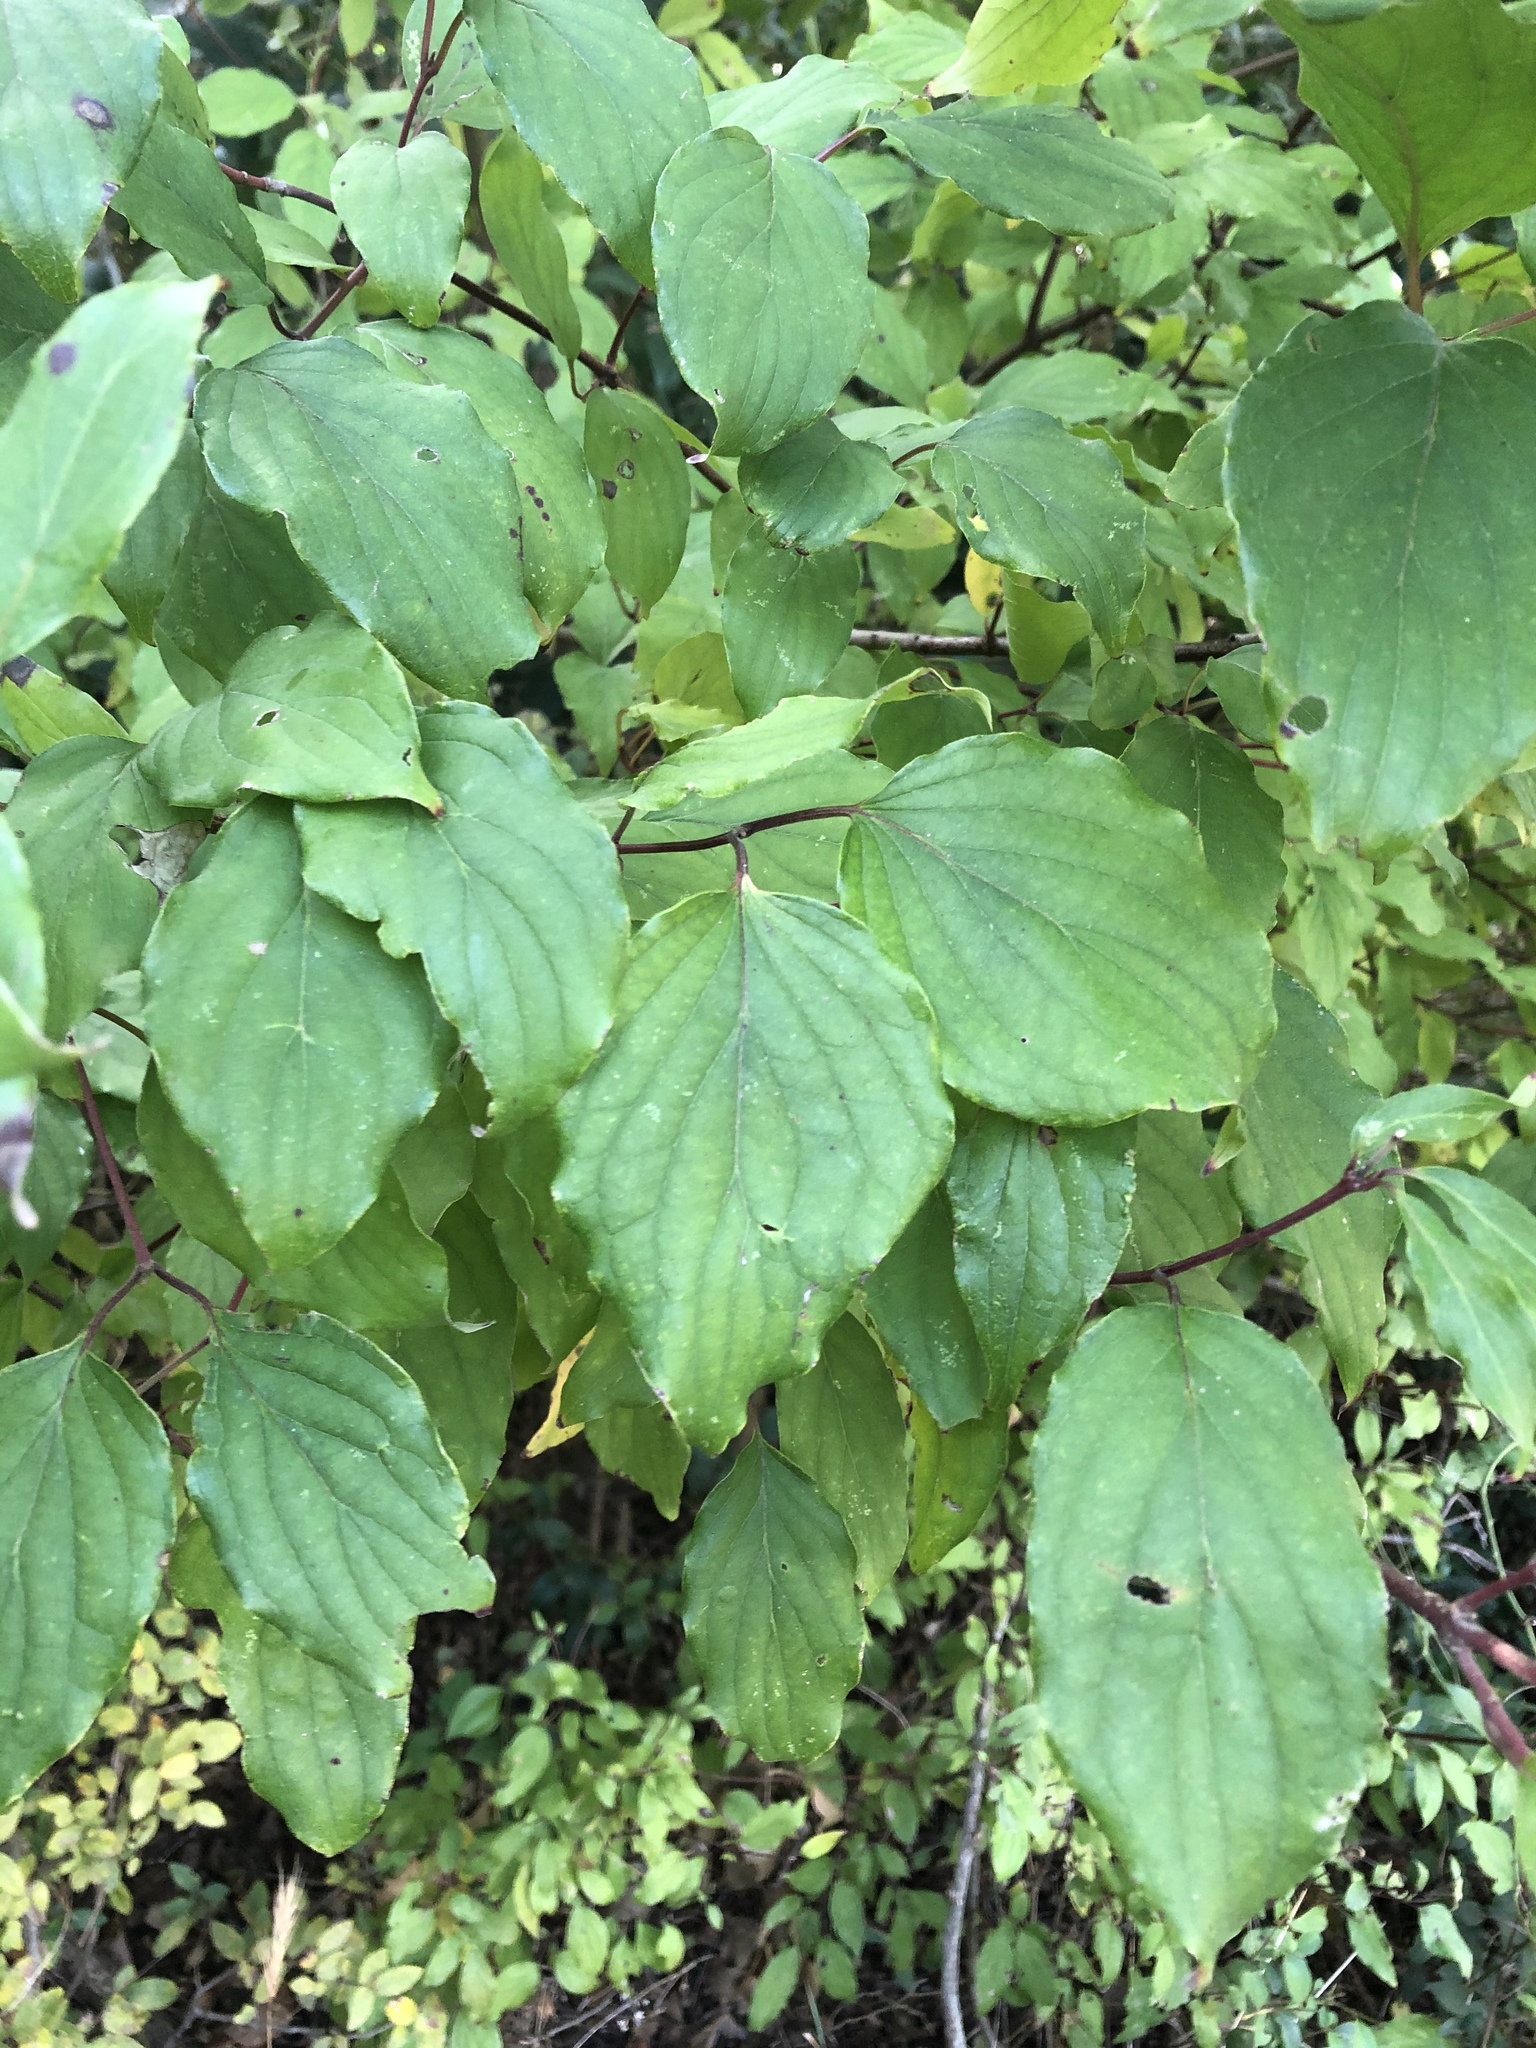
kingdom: Plantae
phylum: Tracheophyta
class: Magnoliopsida
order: Cornales
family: Cornaceae
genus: Cornus
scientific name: Cornus drummondii
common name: Rough-leaf dogwood
